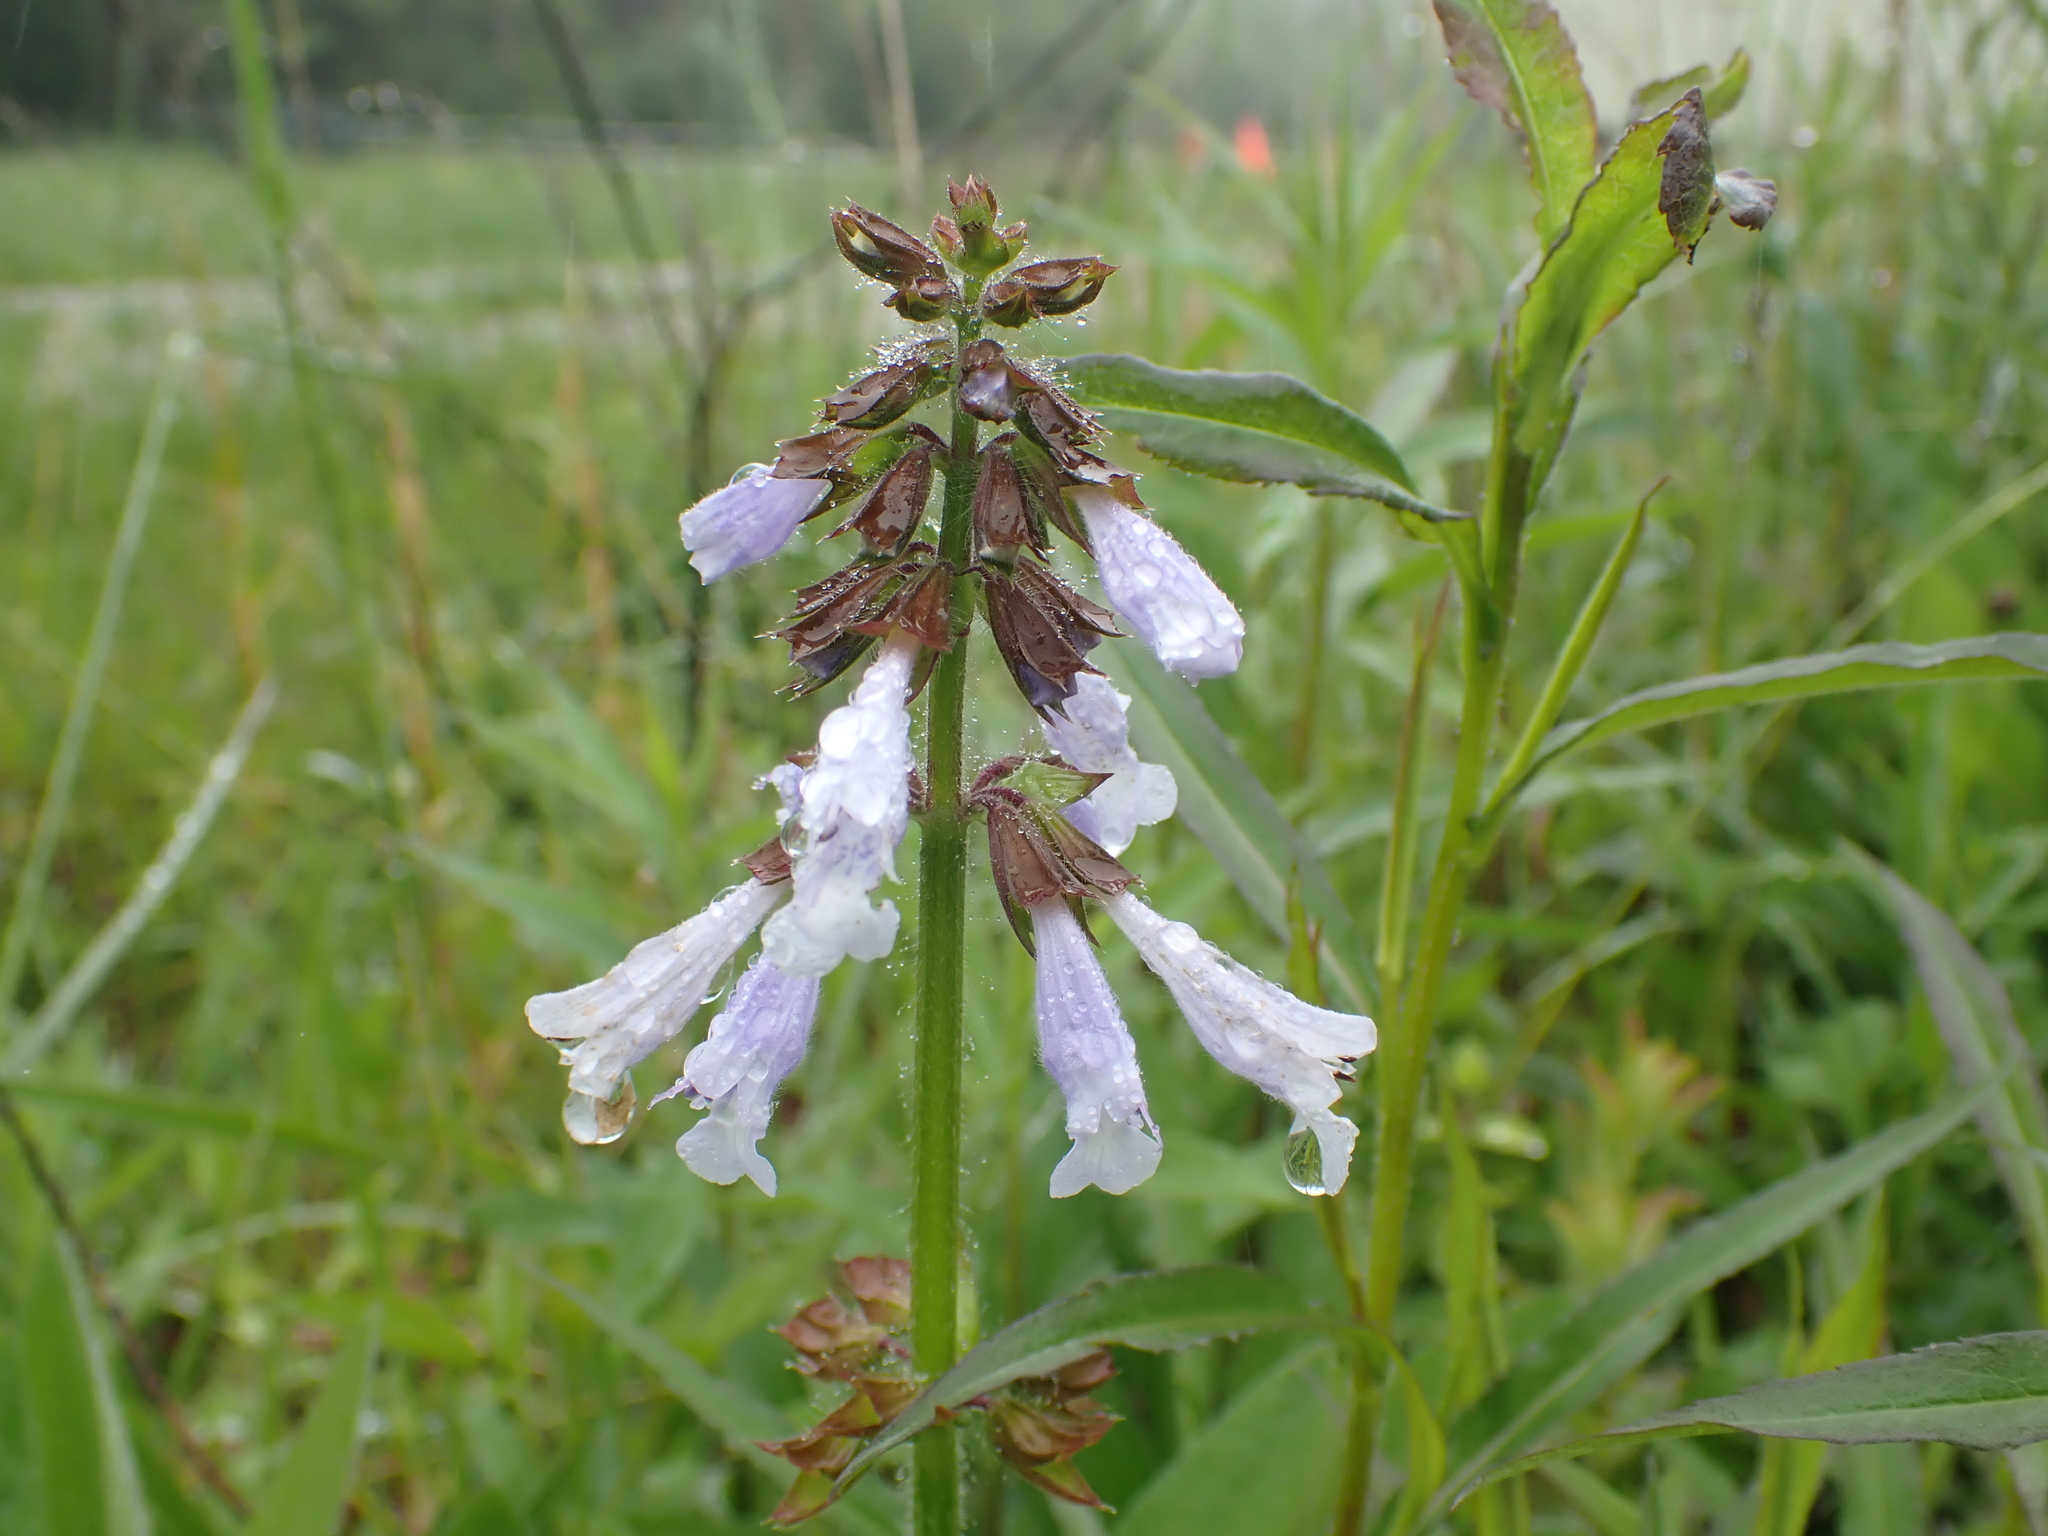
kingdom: Plantae
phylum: Tracheophyta
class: Magnoliopsida
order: Lamiales
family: Lamiaceae
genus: Salvia
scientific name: Salvia lyrata
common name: Cancerweed
